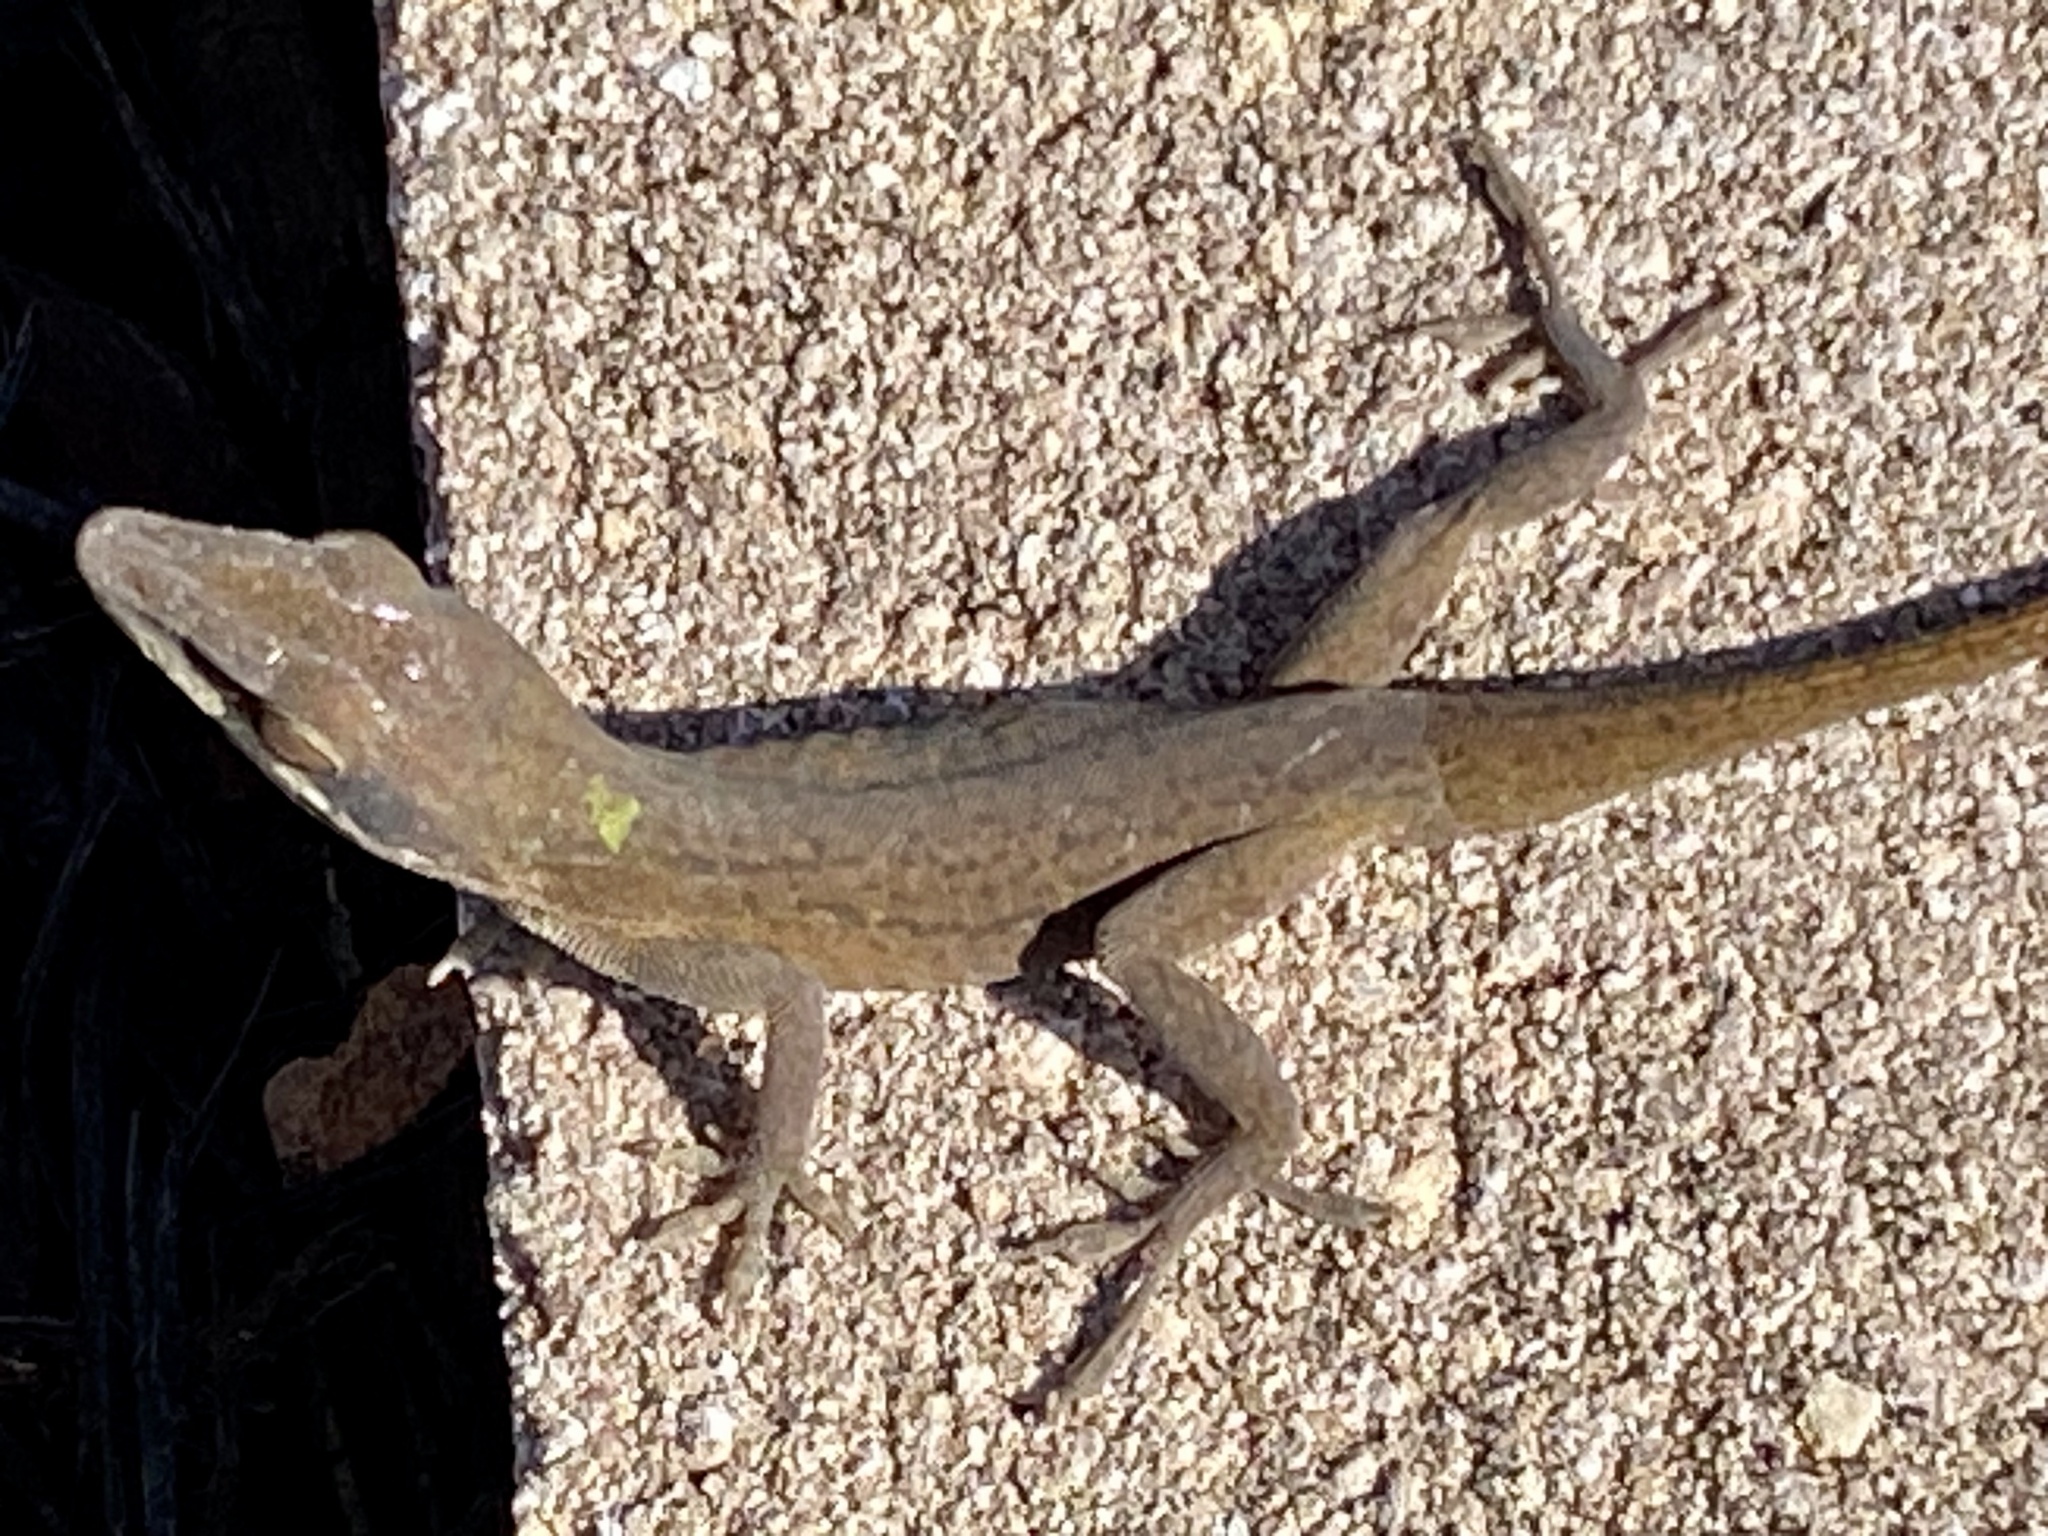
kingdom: Animalia
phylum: Chordata
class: Squamata
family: Dactyloidae
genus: Anolis
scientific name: Anolis carolinensis
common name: Green anole
